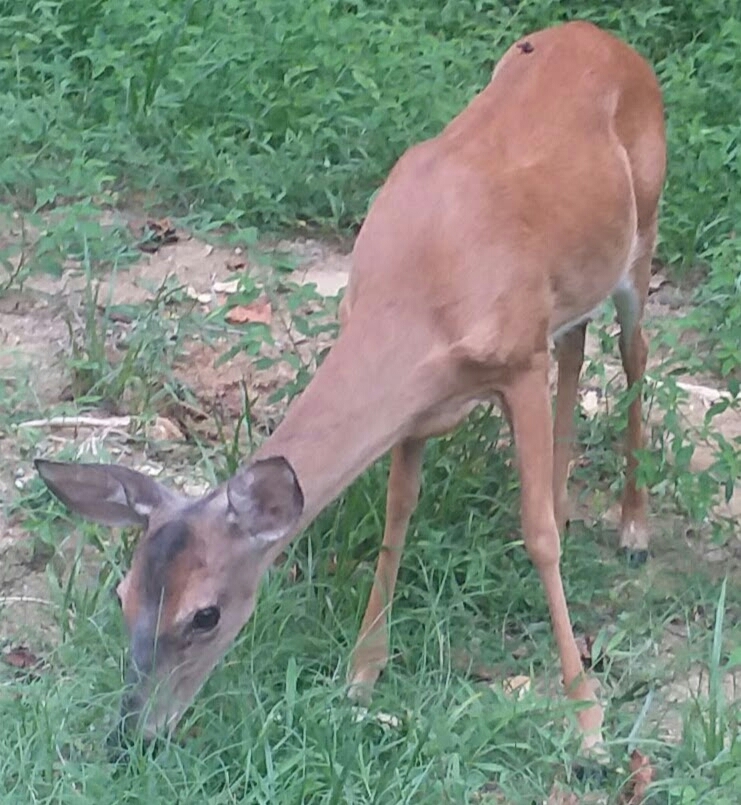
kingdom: Animalia
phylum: Chordata
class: Mammalia
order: Artiodactyla
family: Cervidae
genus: Odocoileus
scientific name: Odocoileus virginianus
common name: White-tailed deer
